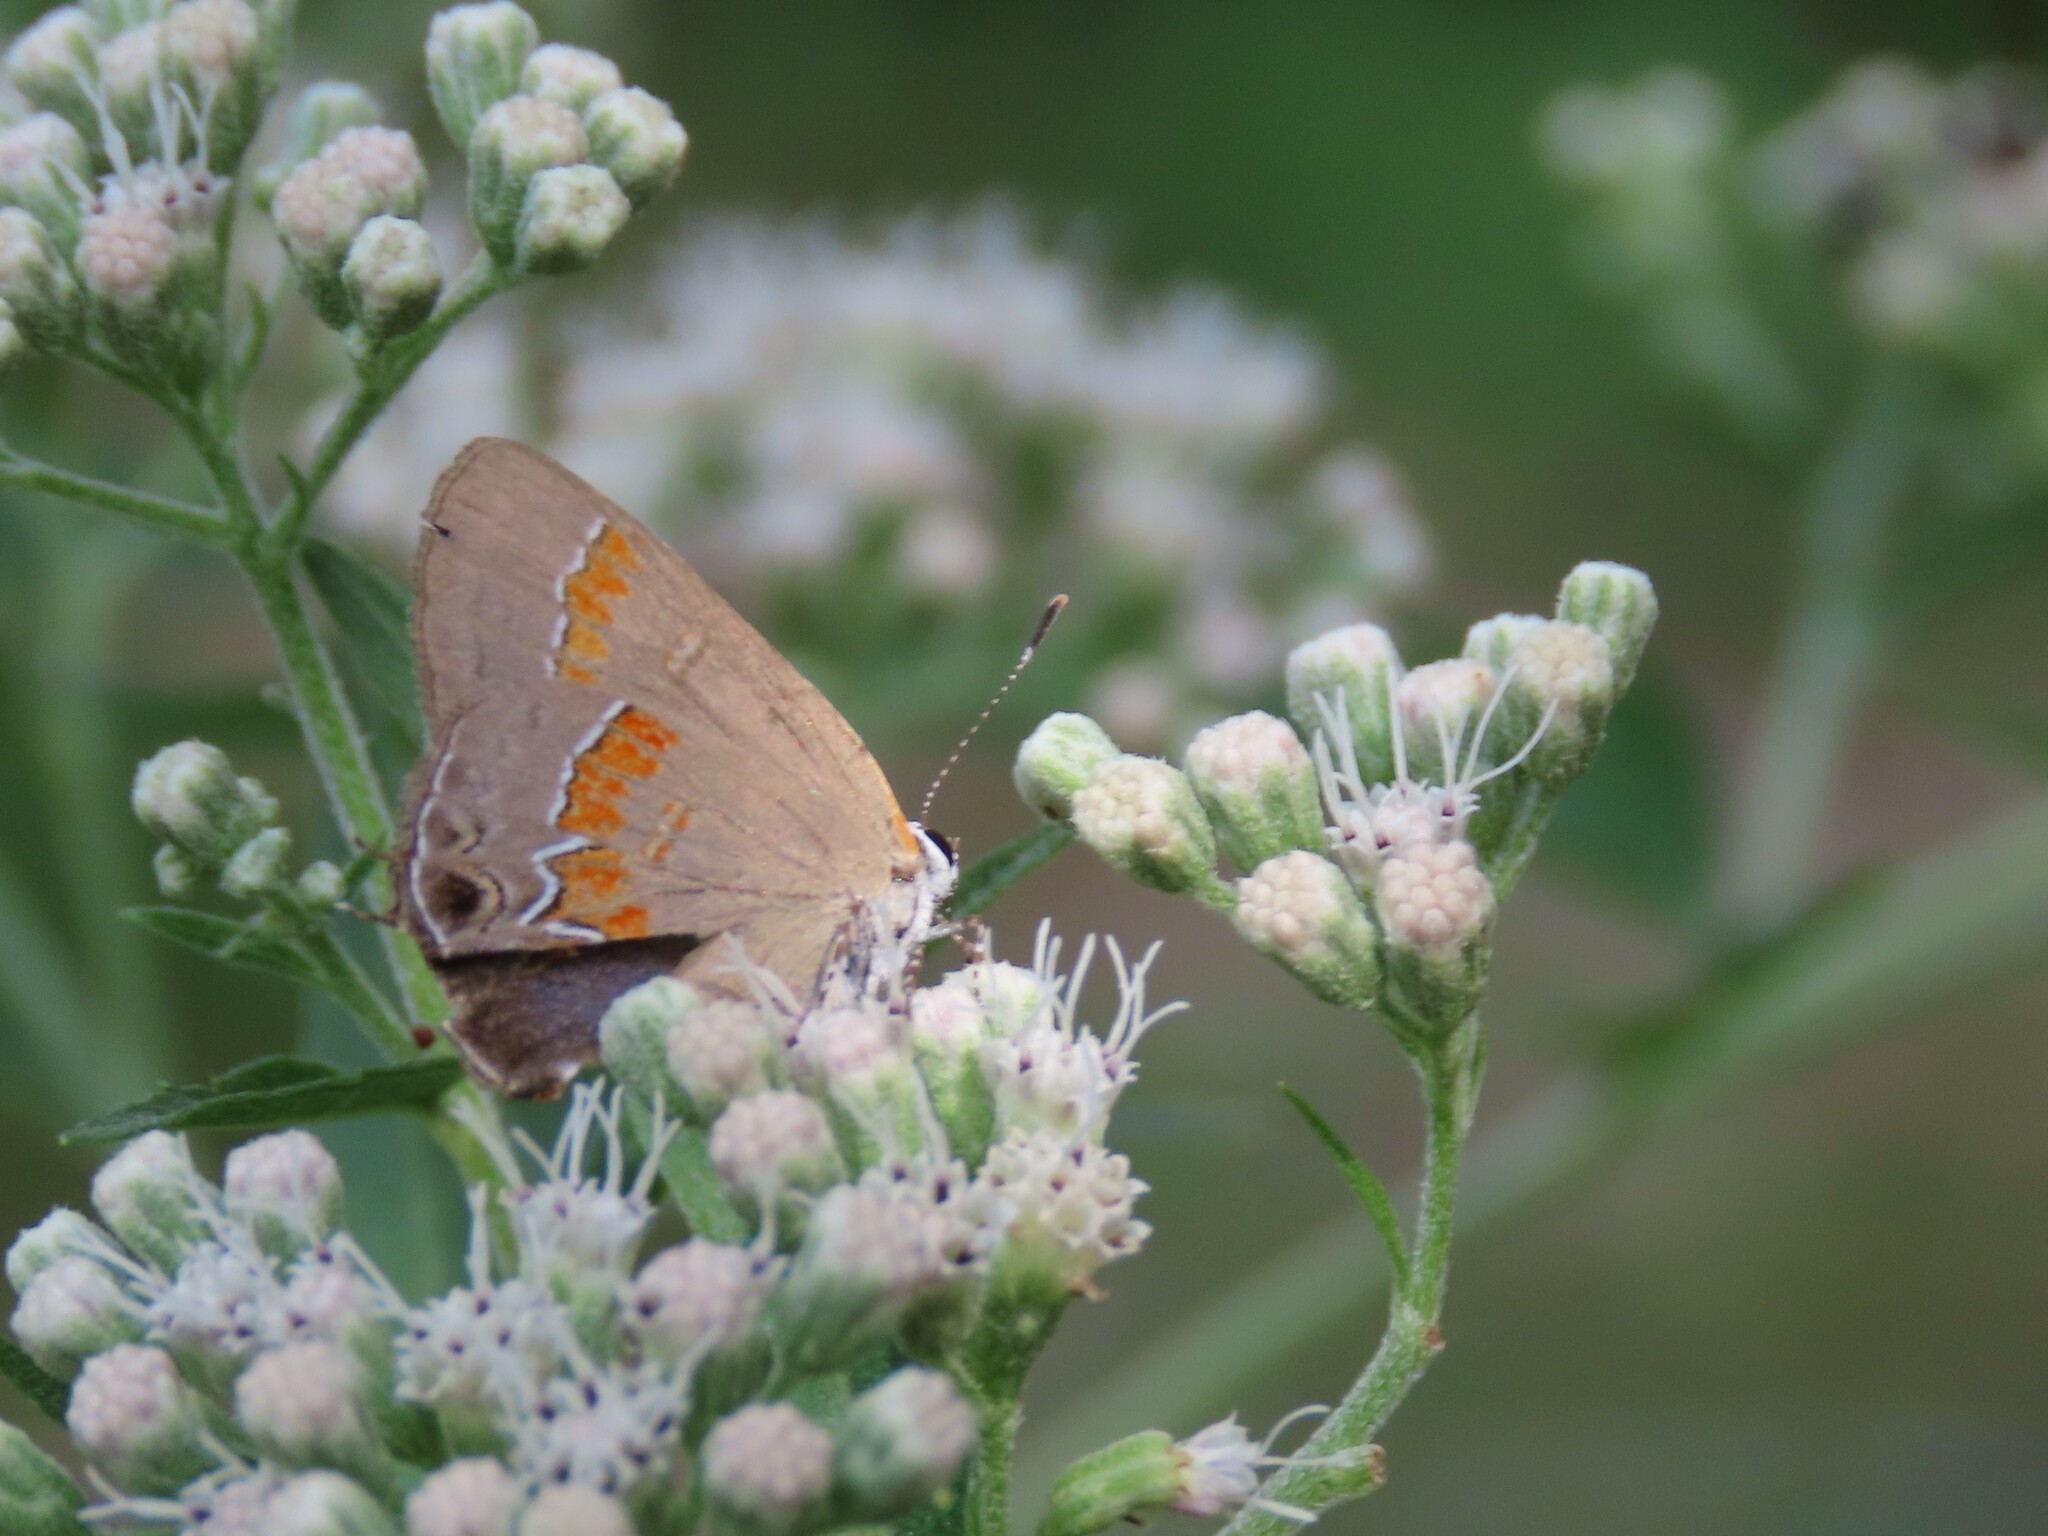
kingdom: Animalia
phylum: Arthropoda
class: Insecta
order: Lepidoptera
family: Lycaenidae
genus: Calycopis
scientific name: Calycopis cecrops
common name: Red-banded hairstreak
